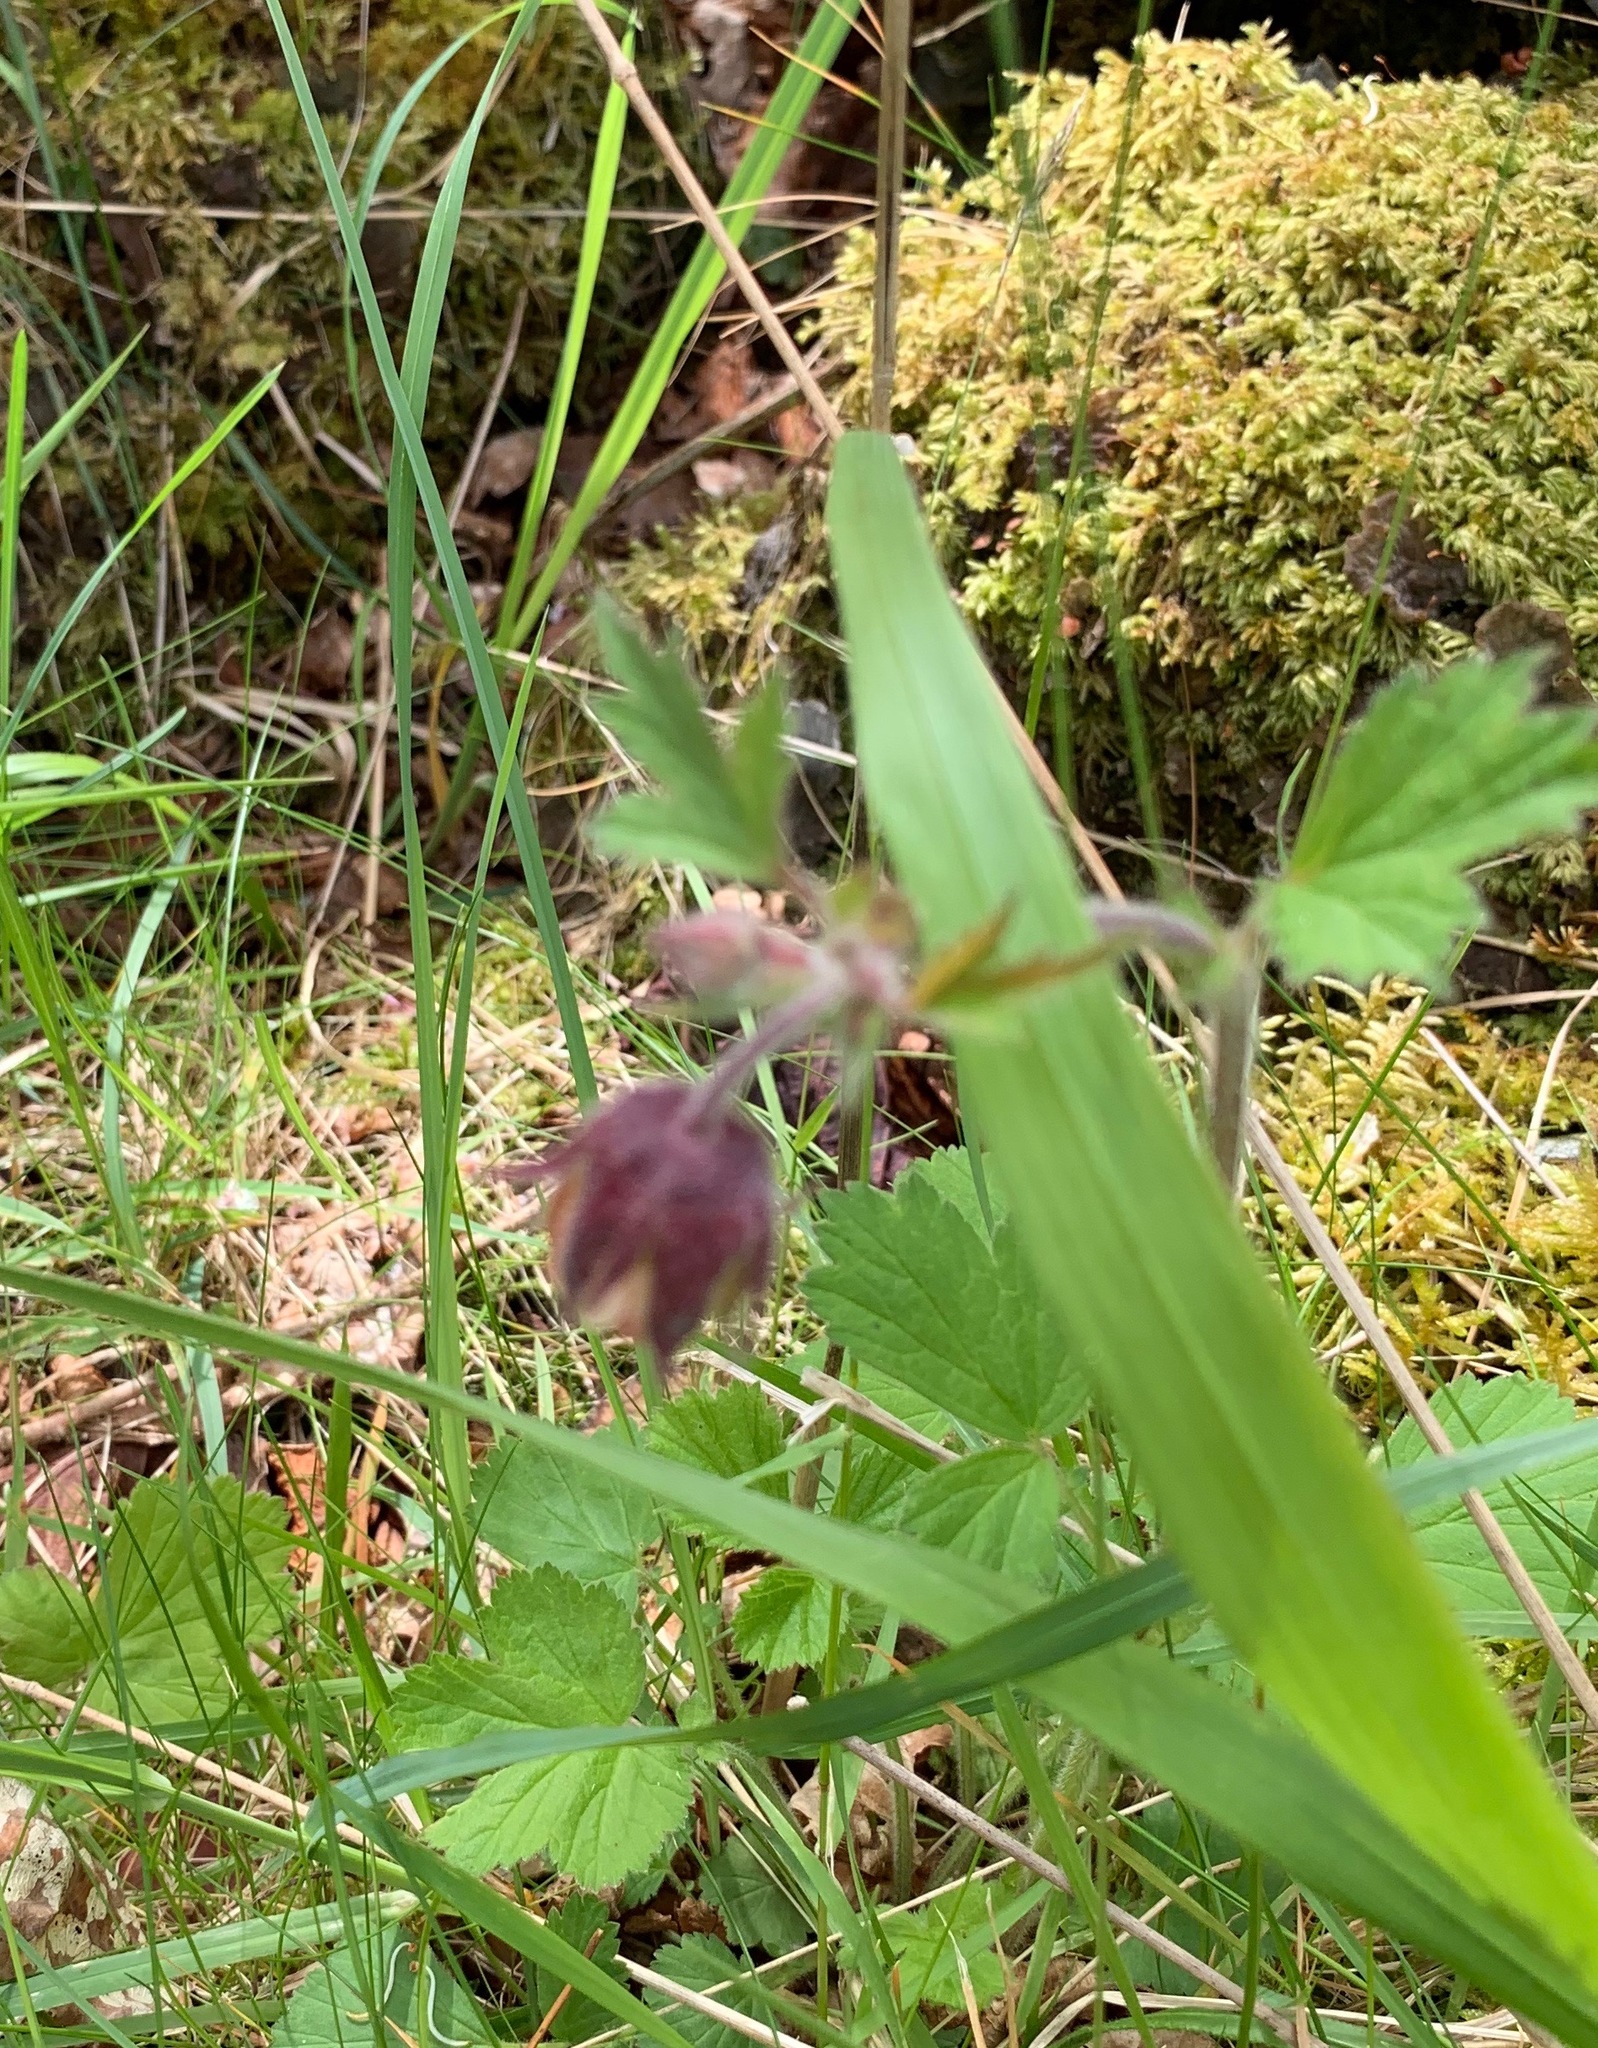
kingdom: Plantae
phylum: Tracheophyta
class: Magnoliopsida
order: Rosales
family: Rosaceae
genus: Geum
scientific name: Geum rivale
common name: Water avens
